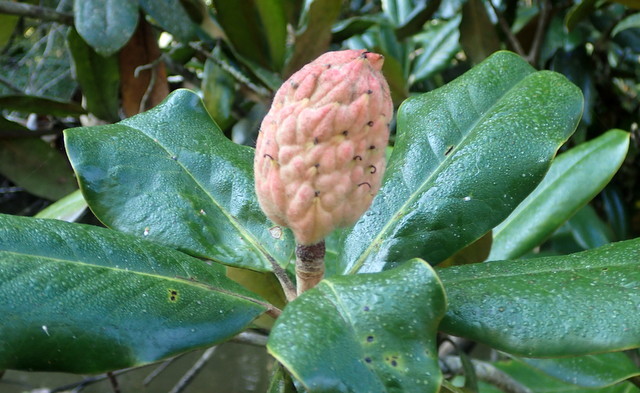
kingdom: Plantae
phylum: Tracheophyta
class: Magnoliopsida
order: Magnoliales
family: Magnoliaceae
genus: Magnolia
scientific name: Magnolia grandiflora
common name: Southern magnolia
